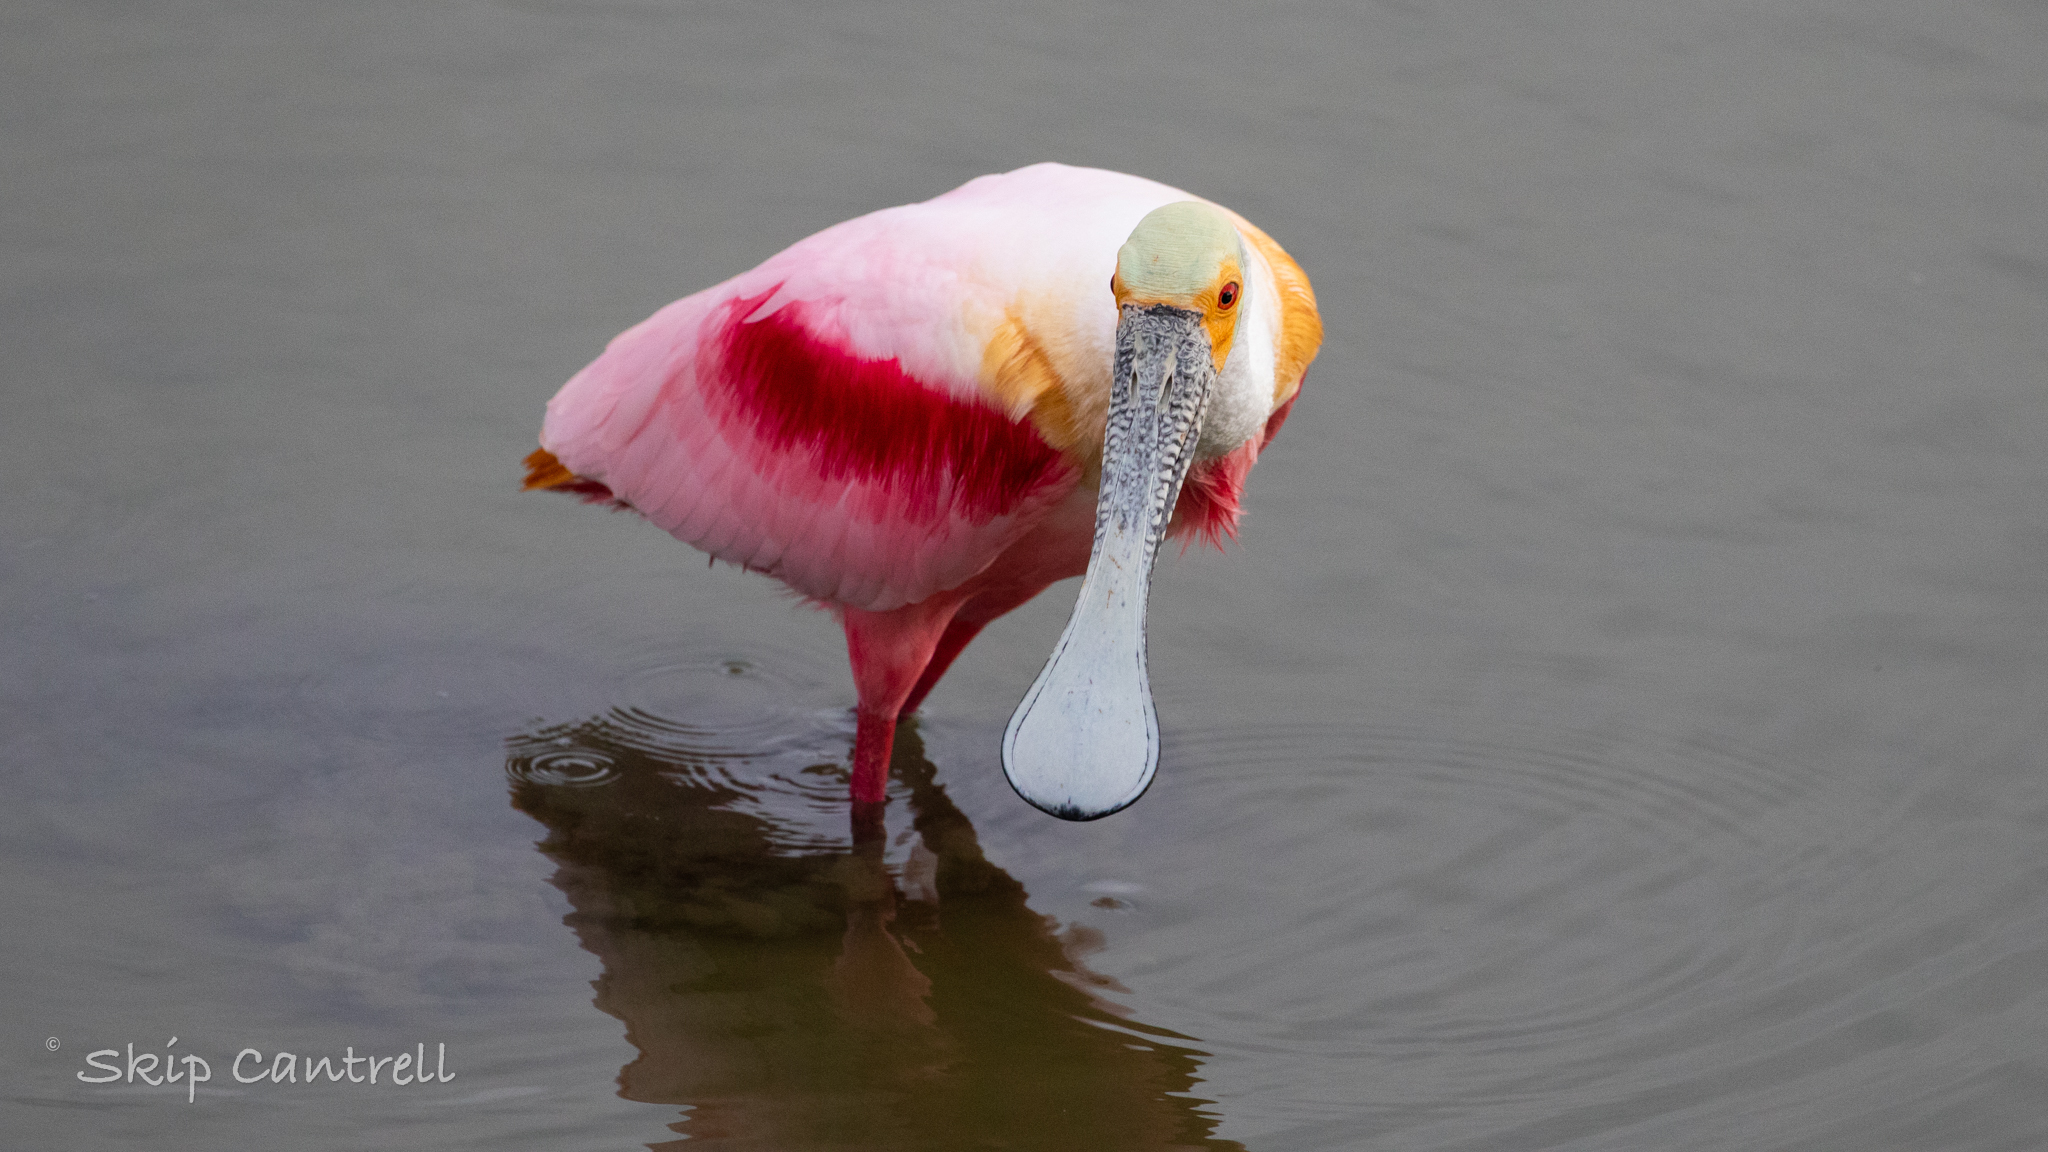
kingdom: Animalia
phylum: Chordata
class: Aves
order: Pelecaniformes
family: Threskiornithidae
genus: Platalea
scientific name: Platalea ajaja
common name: Roseate spoonbill
